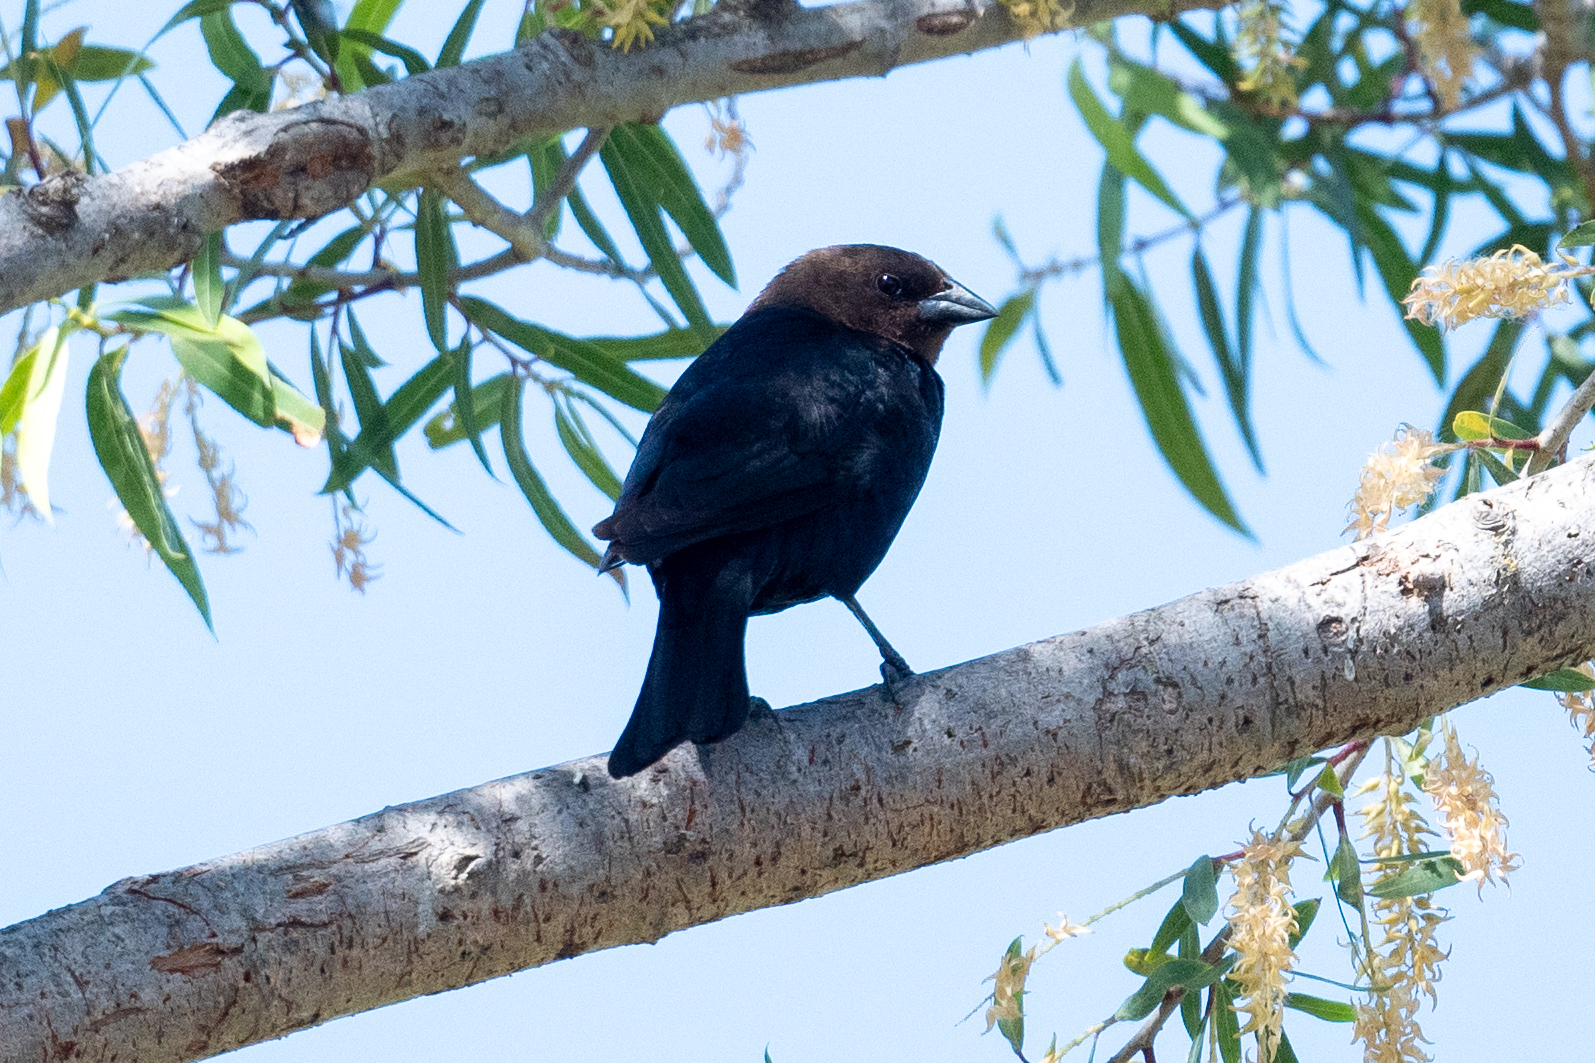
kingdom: Animalia
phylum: Chordata
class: Aves
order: Passeriformes
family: Icteridae
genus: Molothrus
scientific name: Molothrus ater
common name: Brown-headed cowbird
